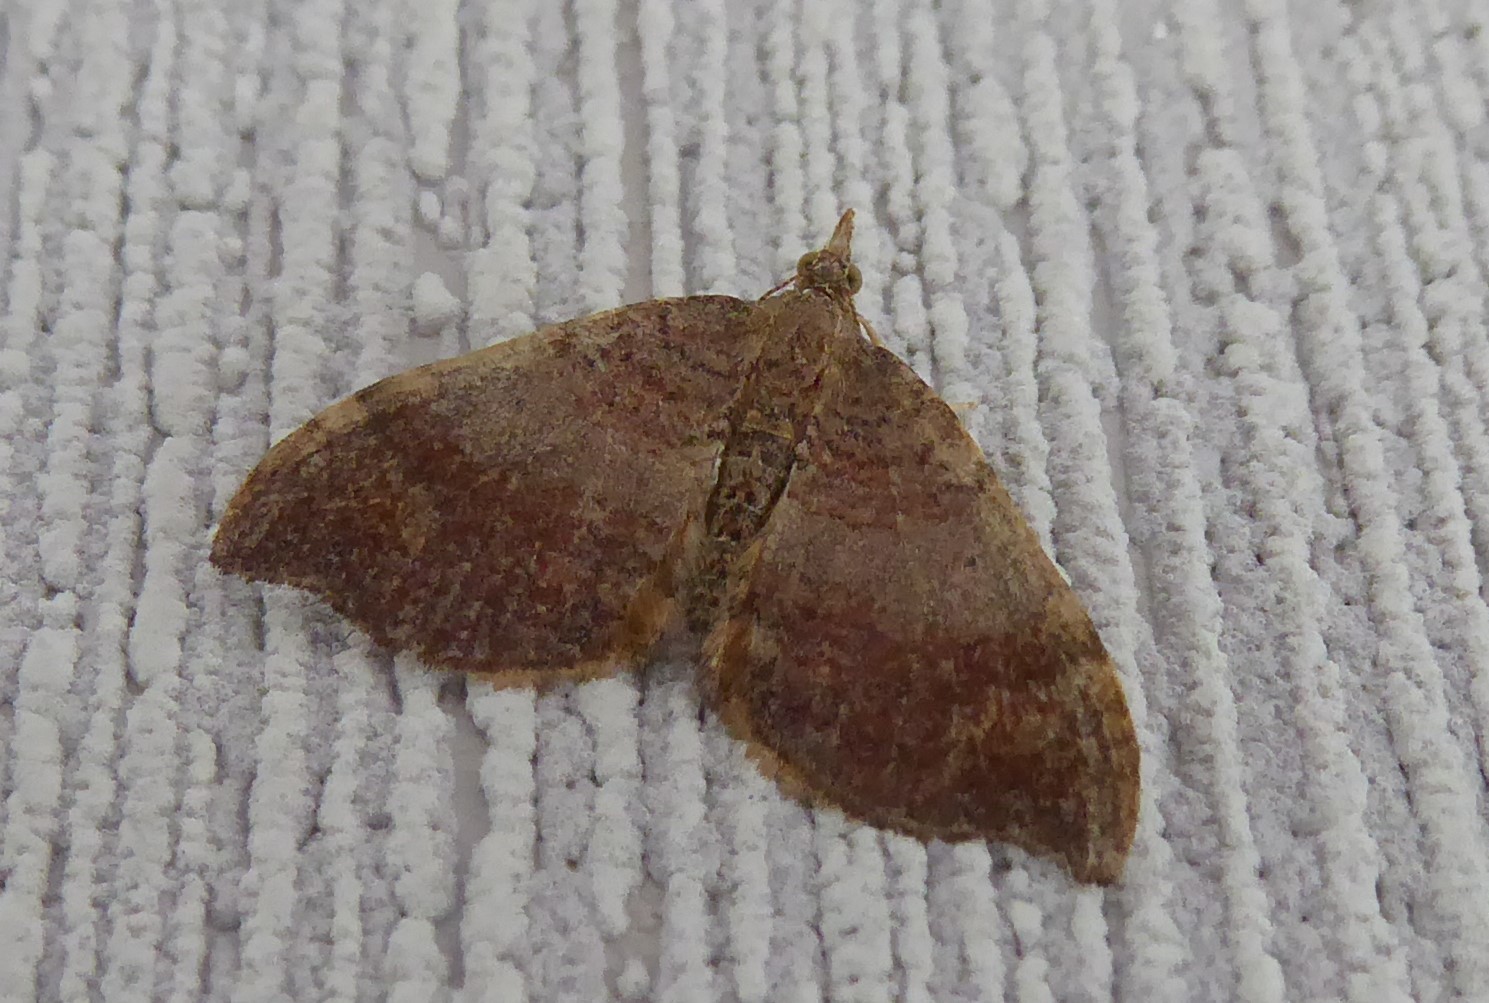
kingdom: Animalia
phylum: Arthropoda
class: Insecta
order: Lepidoptera
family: Geometridae
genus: Homodotis
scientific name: Homodotis megaspilata
